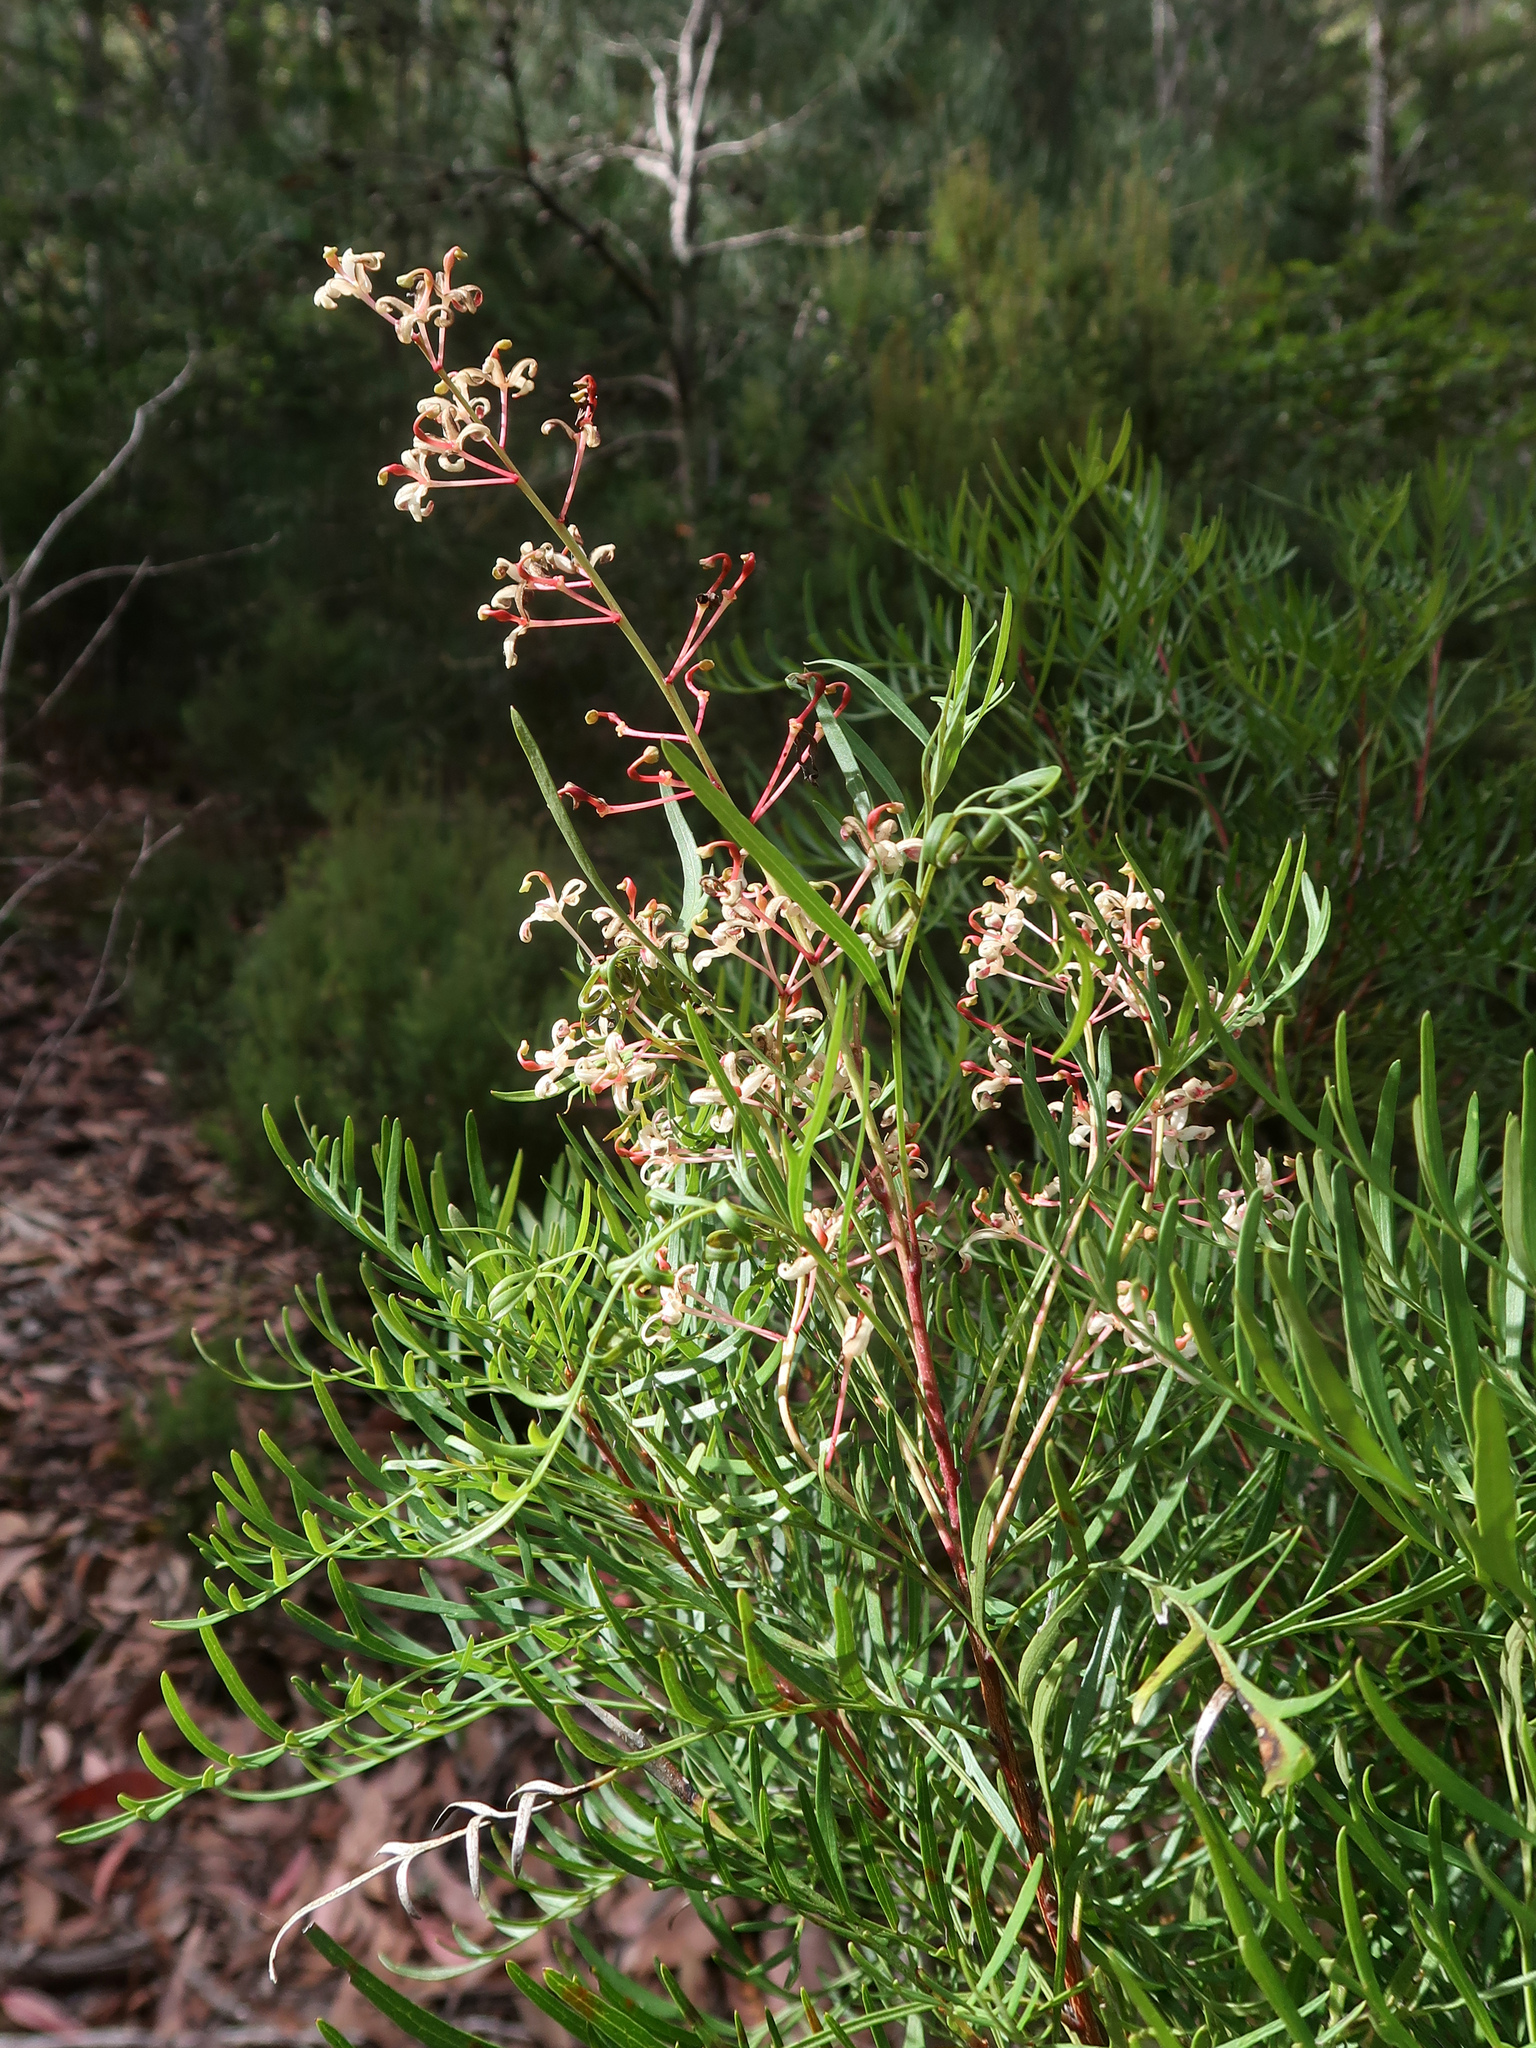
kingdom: Plantae
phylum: Tracheophyta
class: Magnoliopsida
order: Proteales
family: Proteaceae
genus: Lomatia
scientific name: Lomatia tinctoria
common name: Guitar plant
